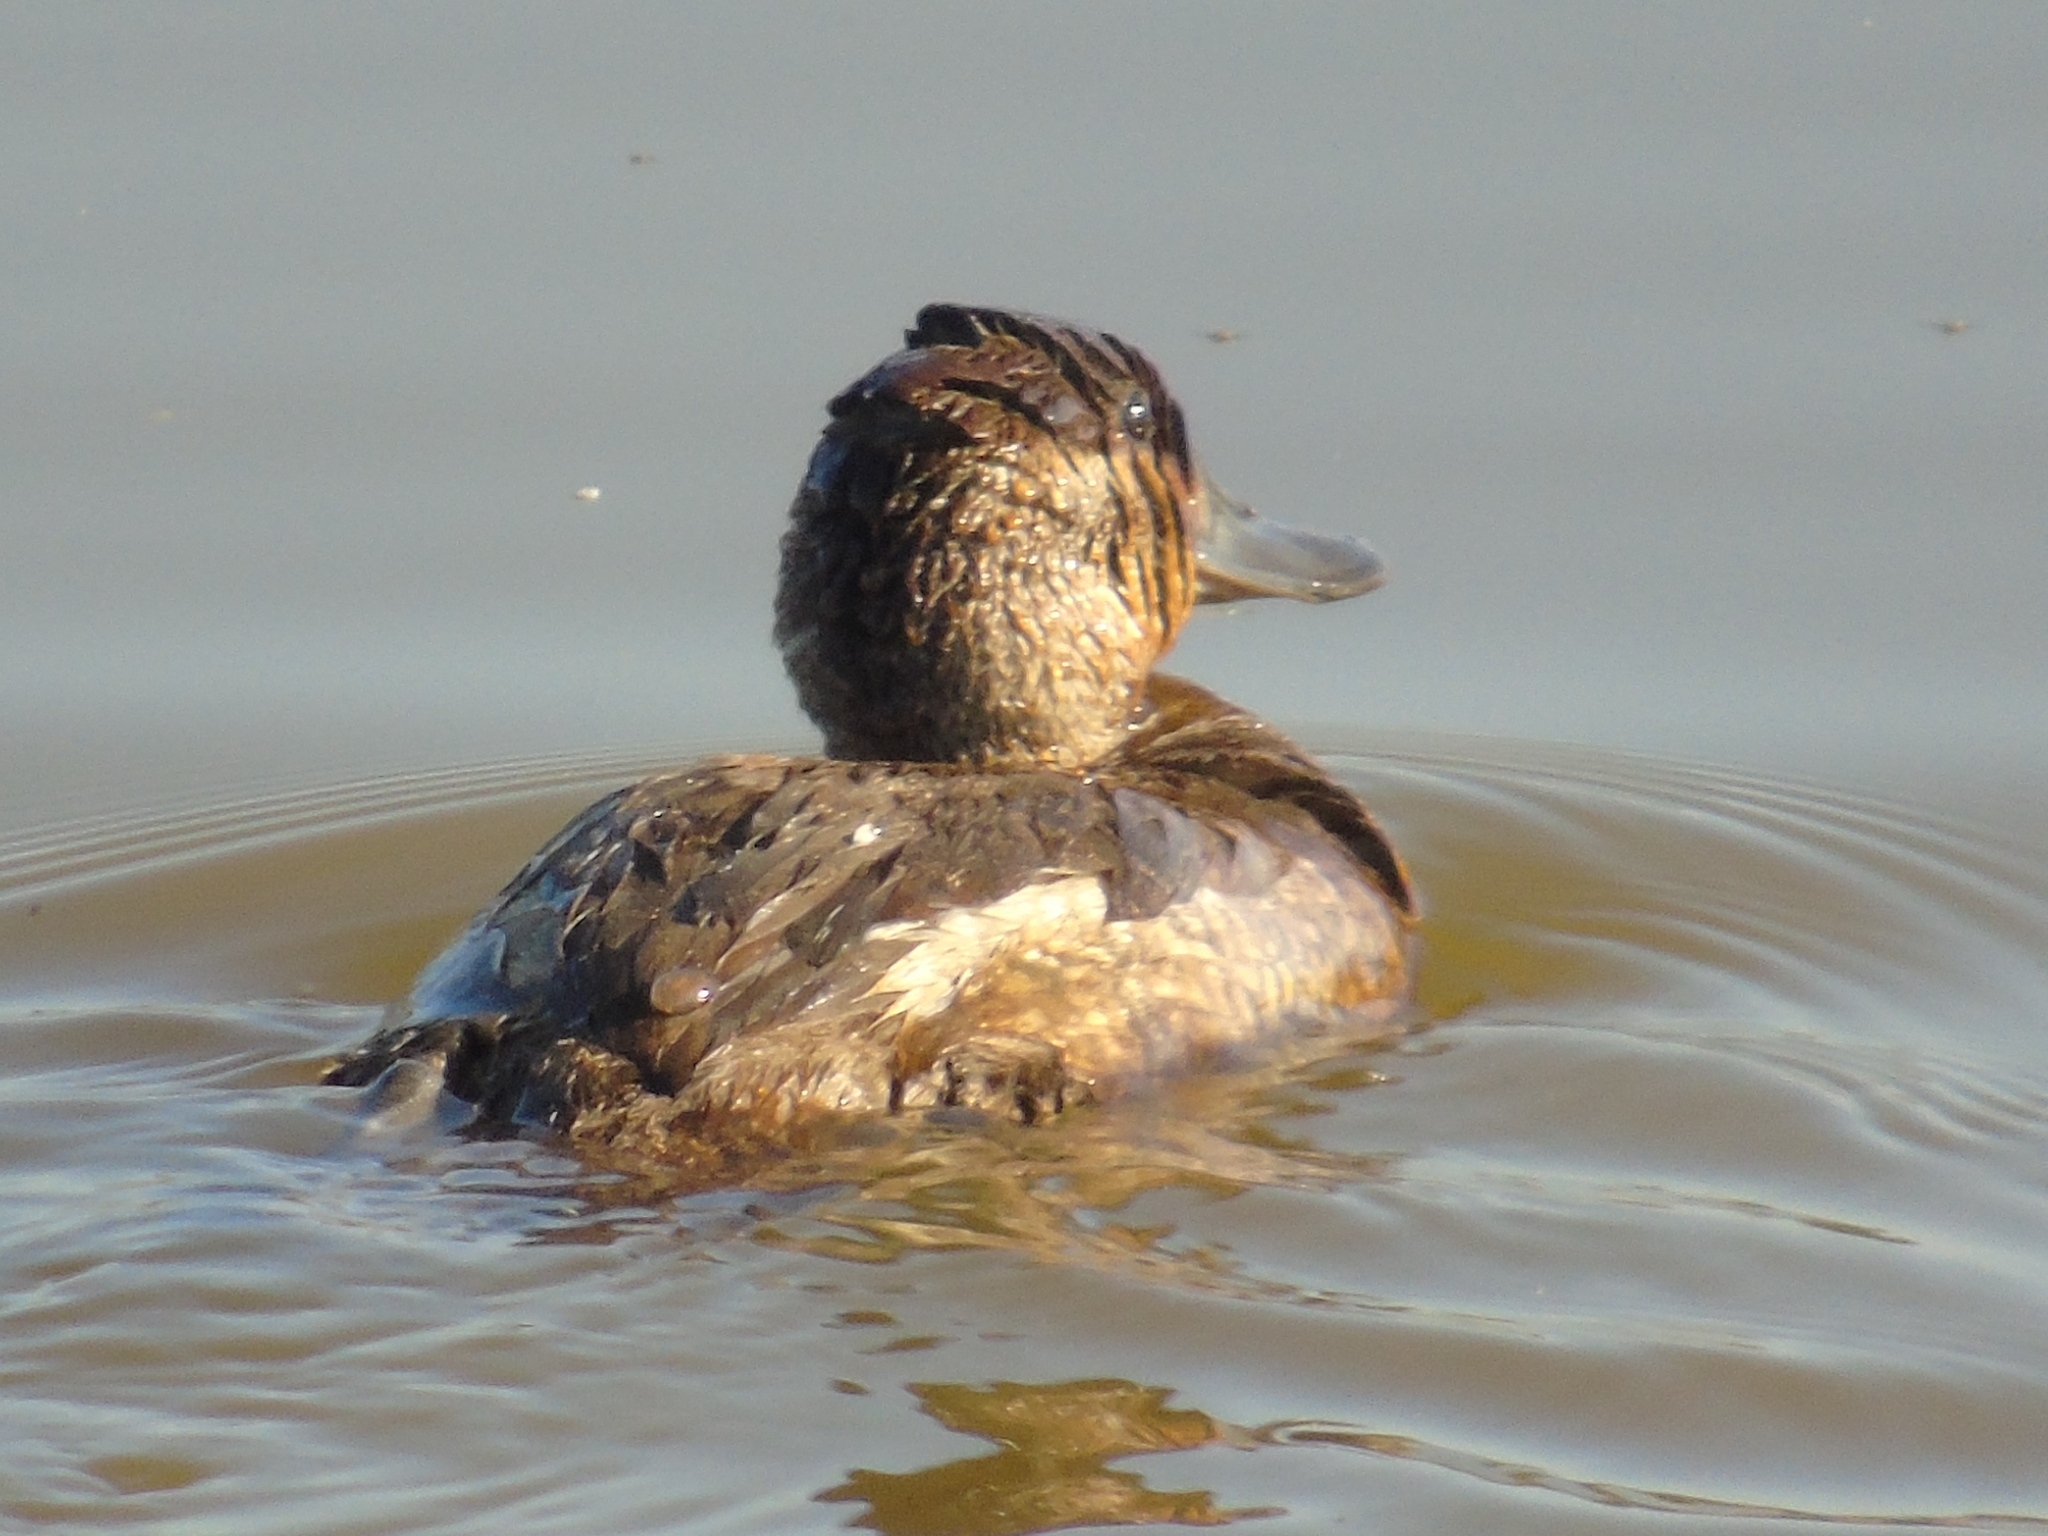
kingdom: Animalia
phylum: Chordata
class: Aves
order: Anseriformes
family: Anatidae
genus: Oxyura
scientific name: Oxyura jamaicensis
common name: Ruddy duck
